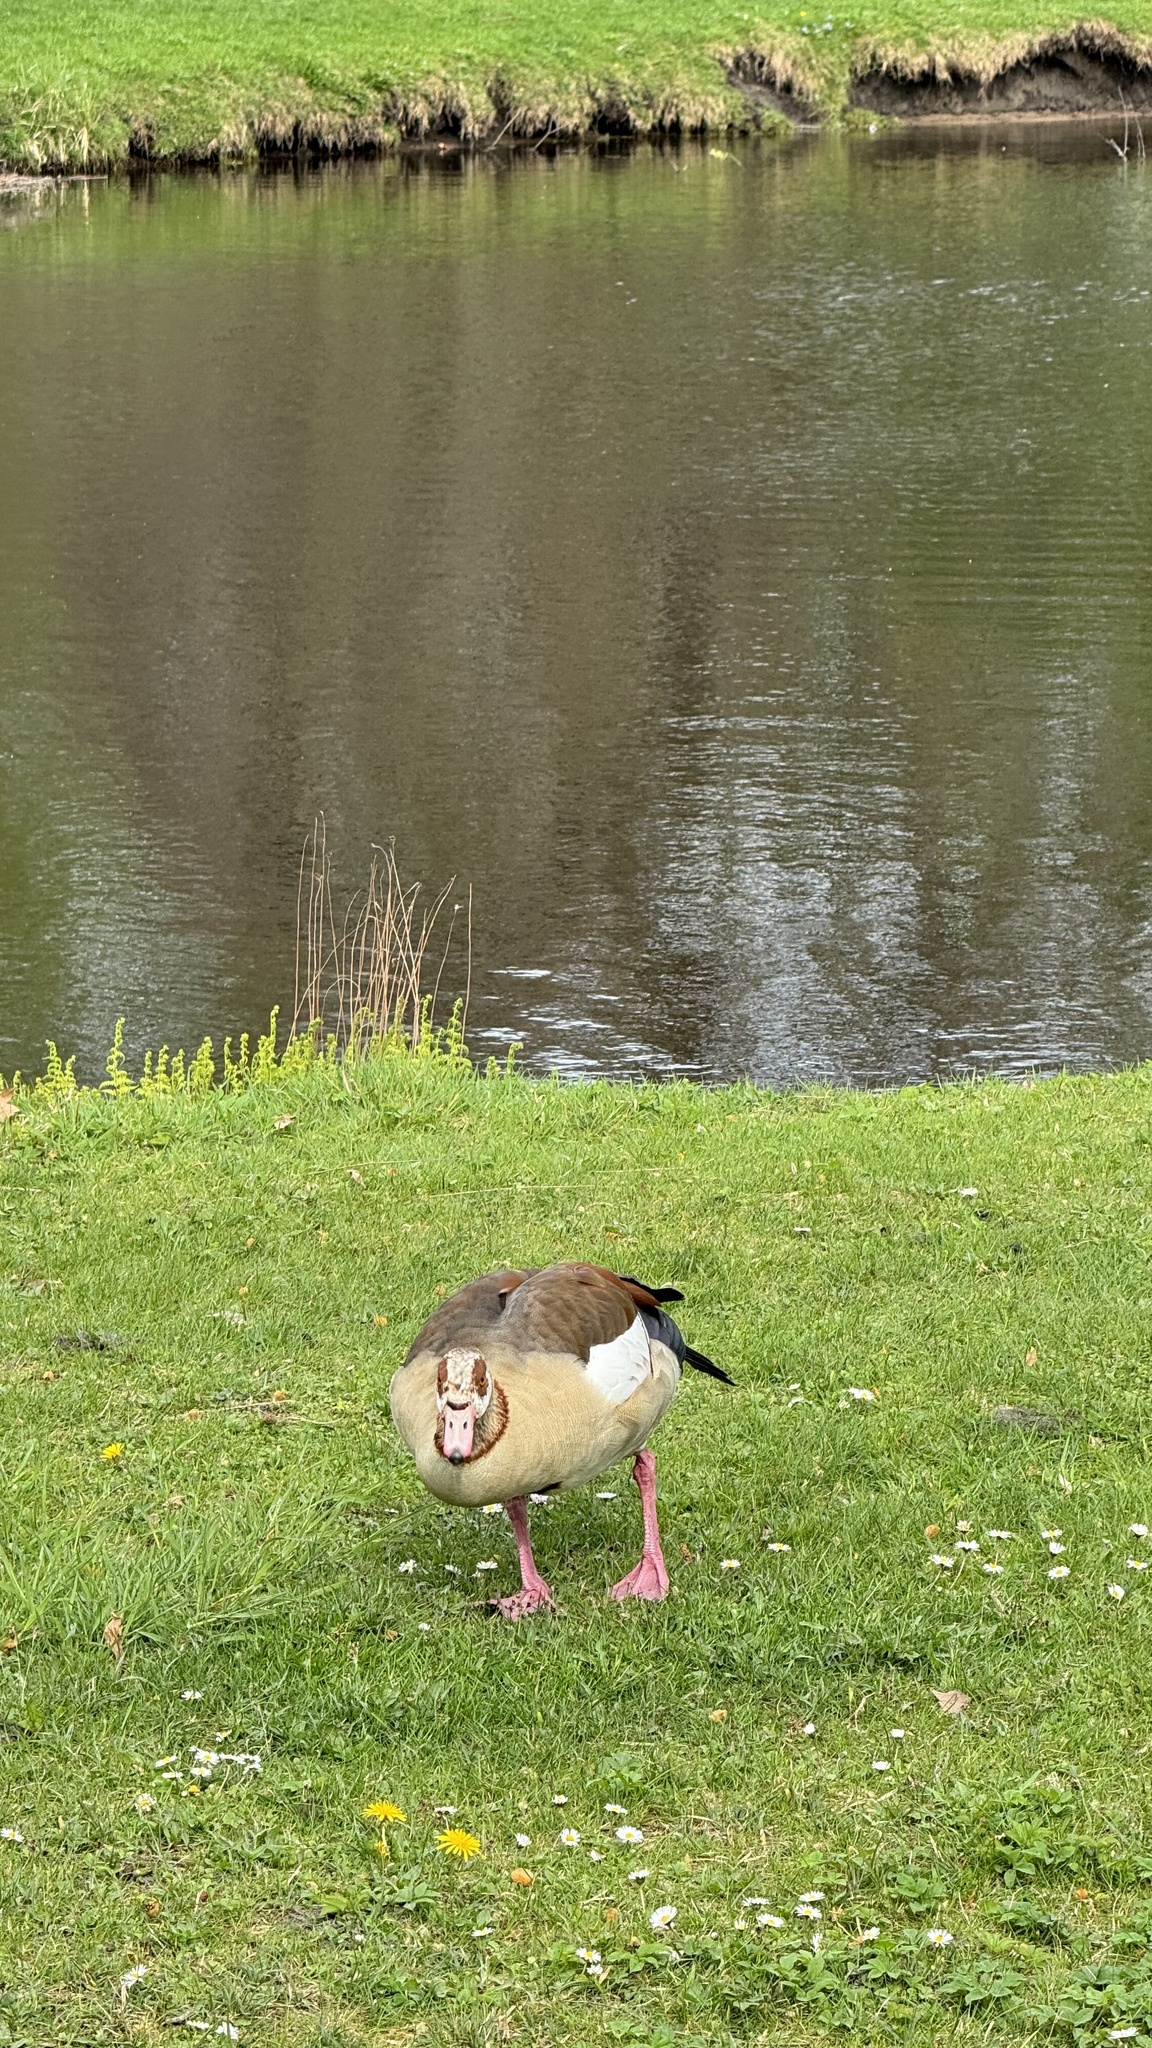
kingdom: Animalia
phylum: Chordata
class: Aves
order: Anseriformes
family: Anatidae
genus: Alopochen
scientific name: Alopochen aegyptiaca
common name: Egyptian goose
